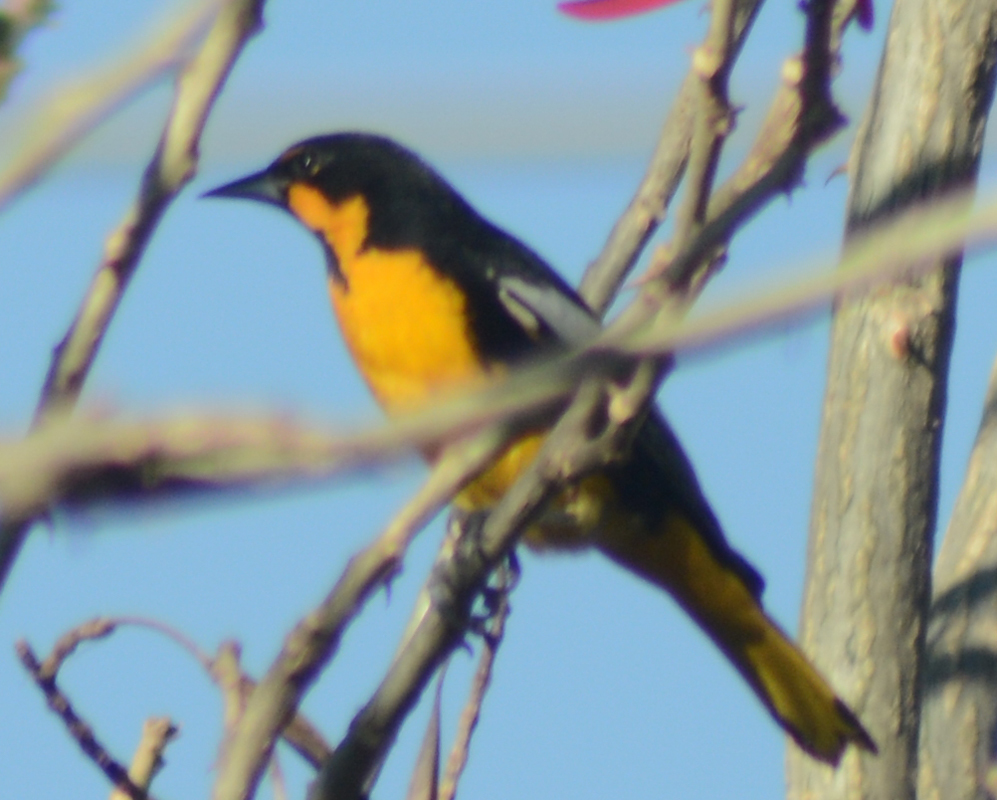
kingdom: Animalia
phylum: Chordata
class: Aves
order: Passeriformes
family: Icteridae
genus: Icterus
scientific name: Icterus abeillei
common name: Black-backed oriole
